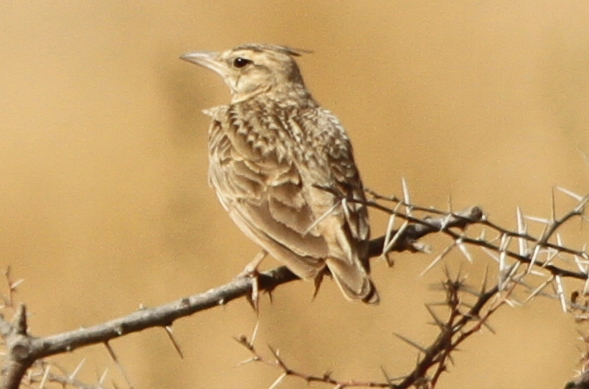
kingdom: Animalia
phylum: Chordata
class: Aves
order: Passeriformes
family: Alaudidae
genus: Galerida
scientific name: Galerida cristata
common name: Crested lark
